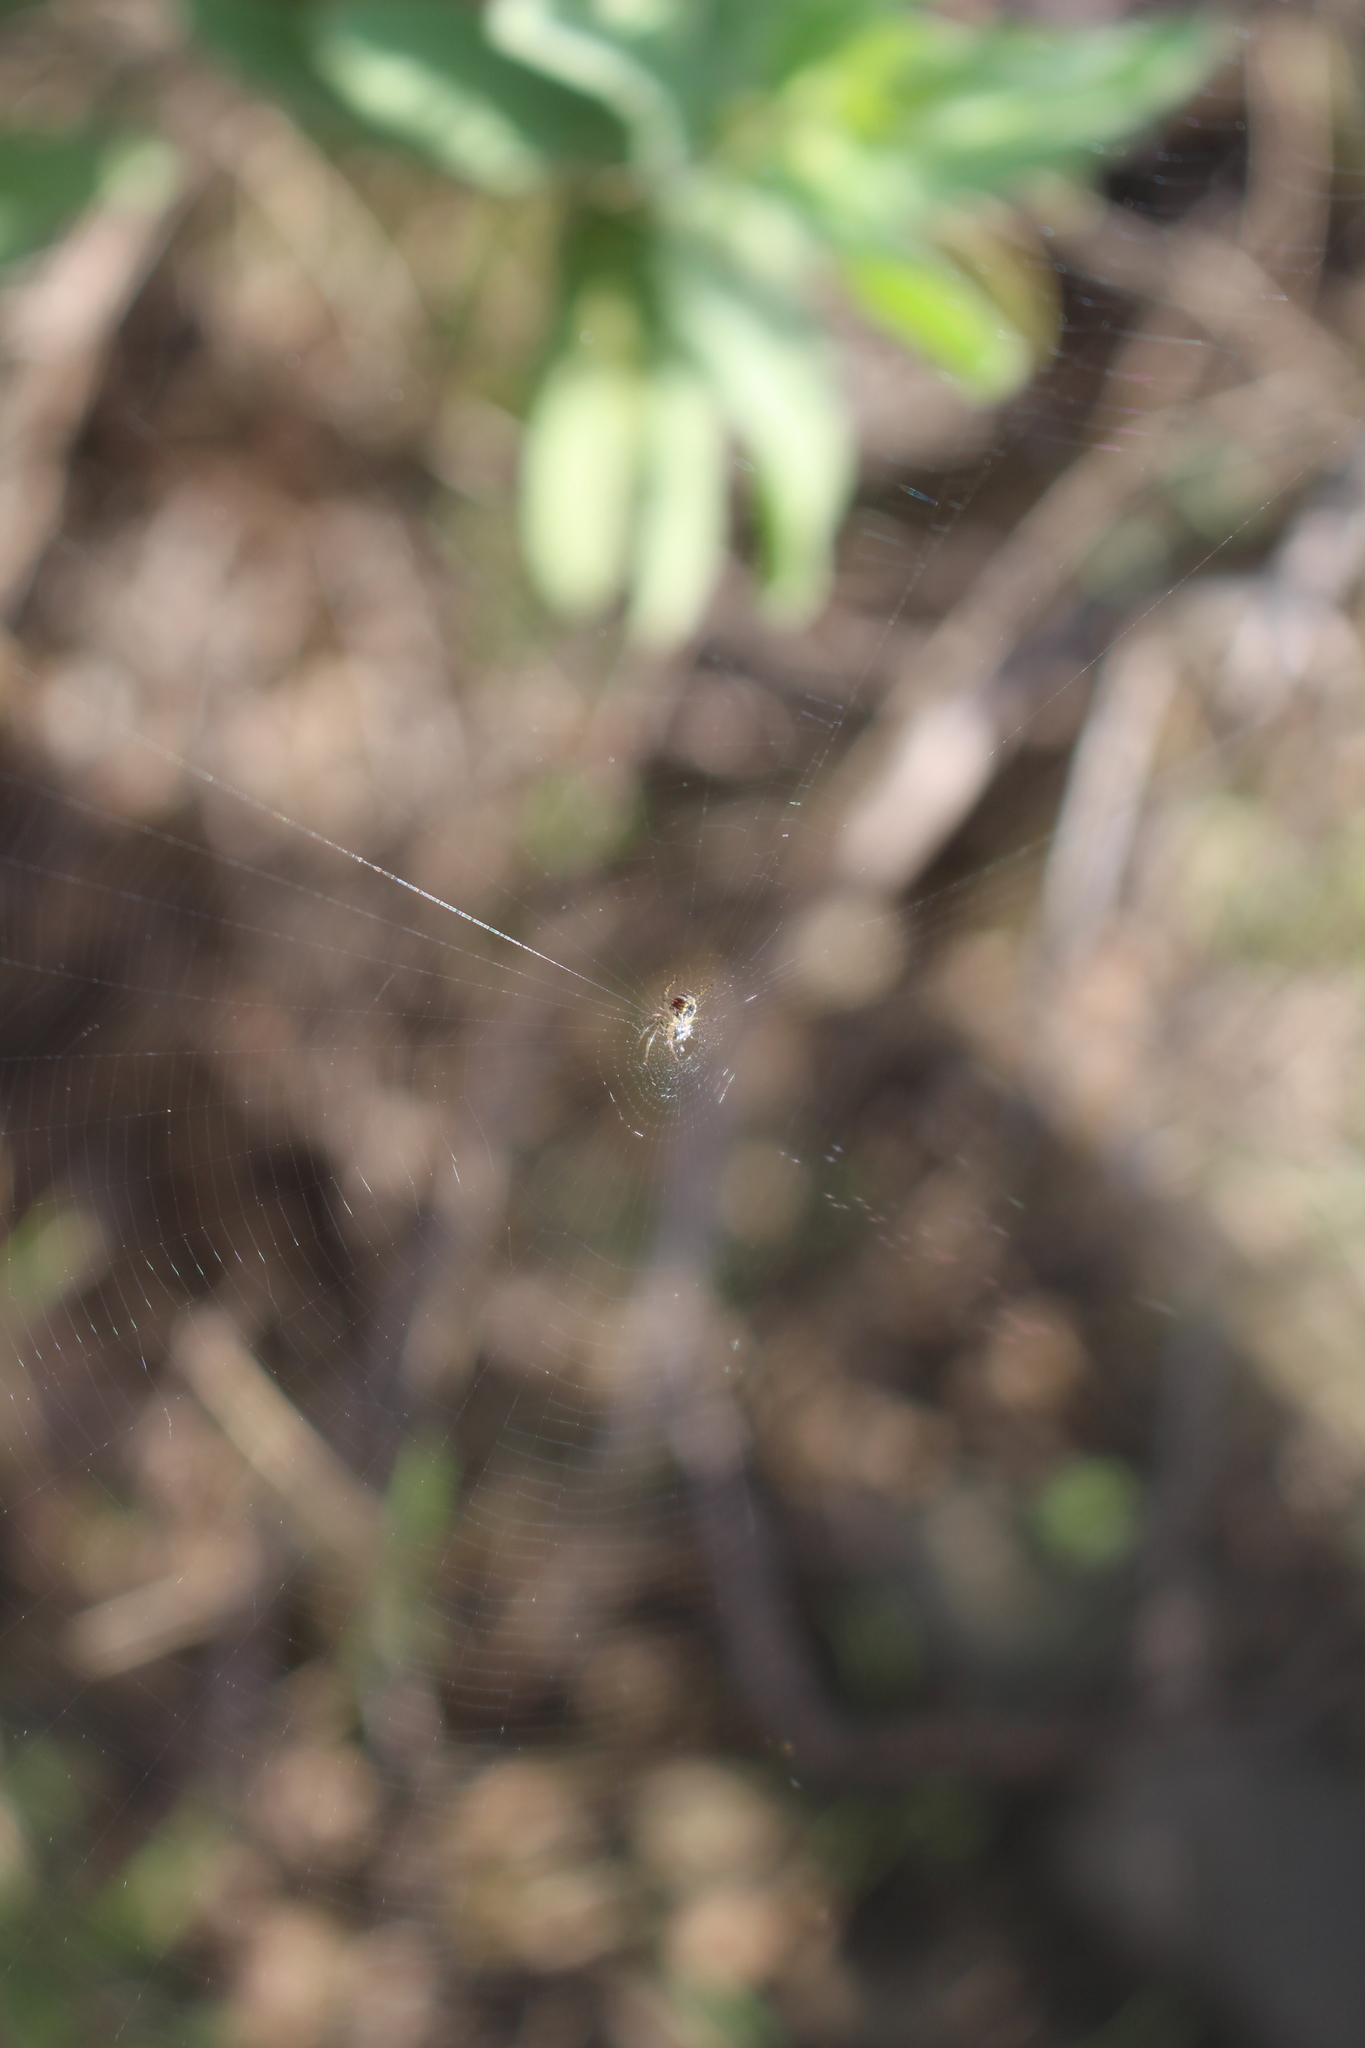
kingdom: Animalia
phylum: Arthropoda
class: Arachnida
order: Araneae
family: Araneidae
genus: Mangora
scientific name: Mangora acalypha
